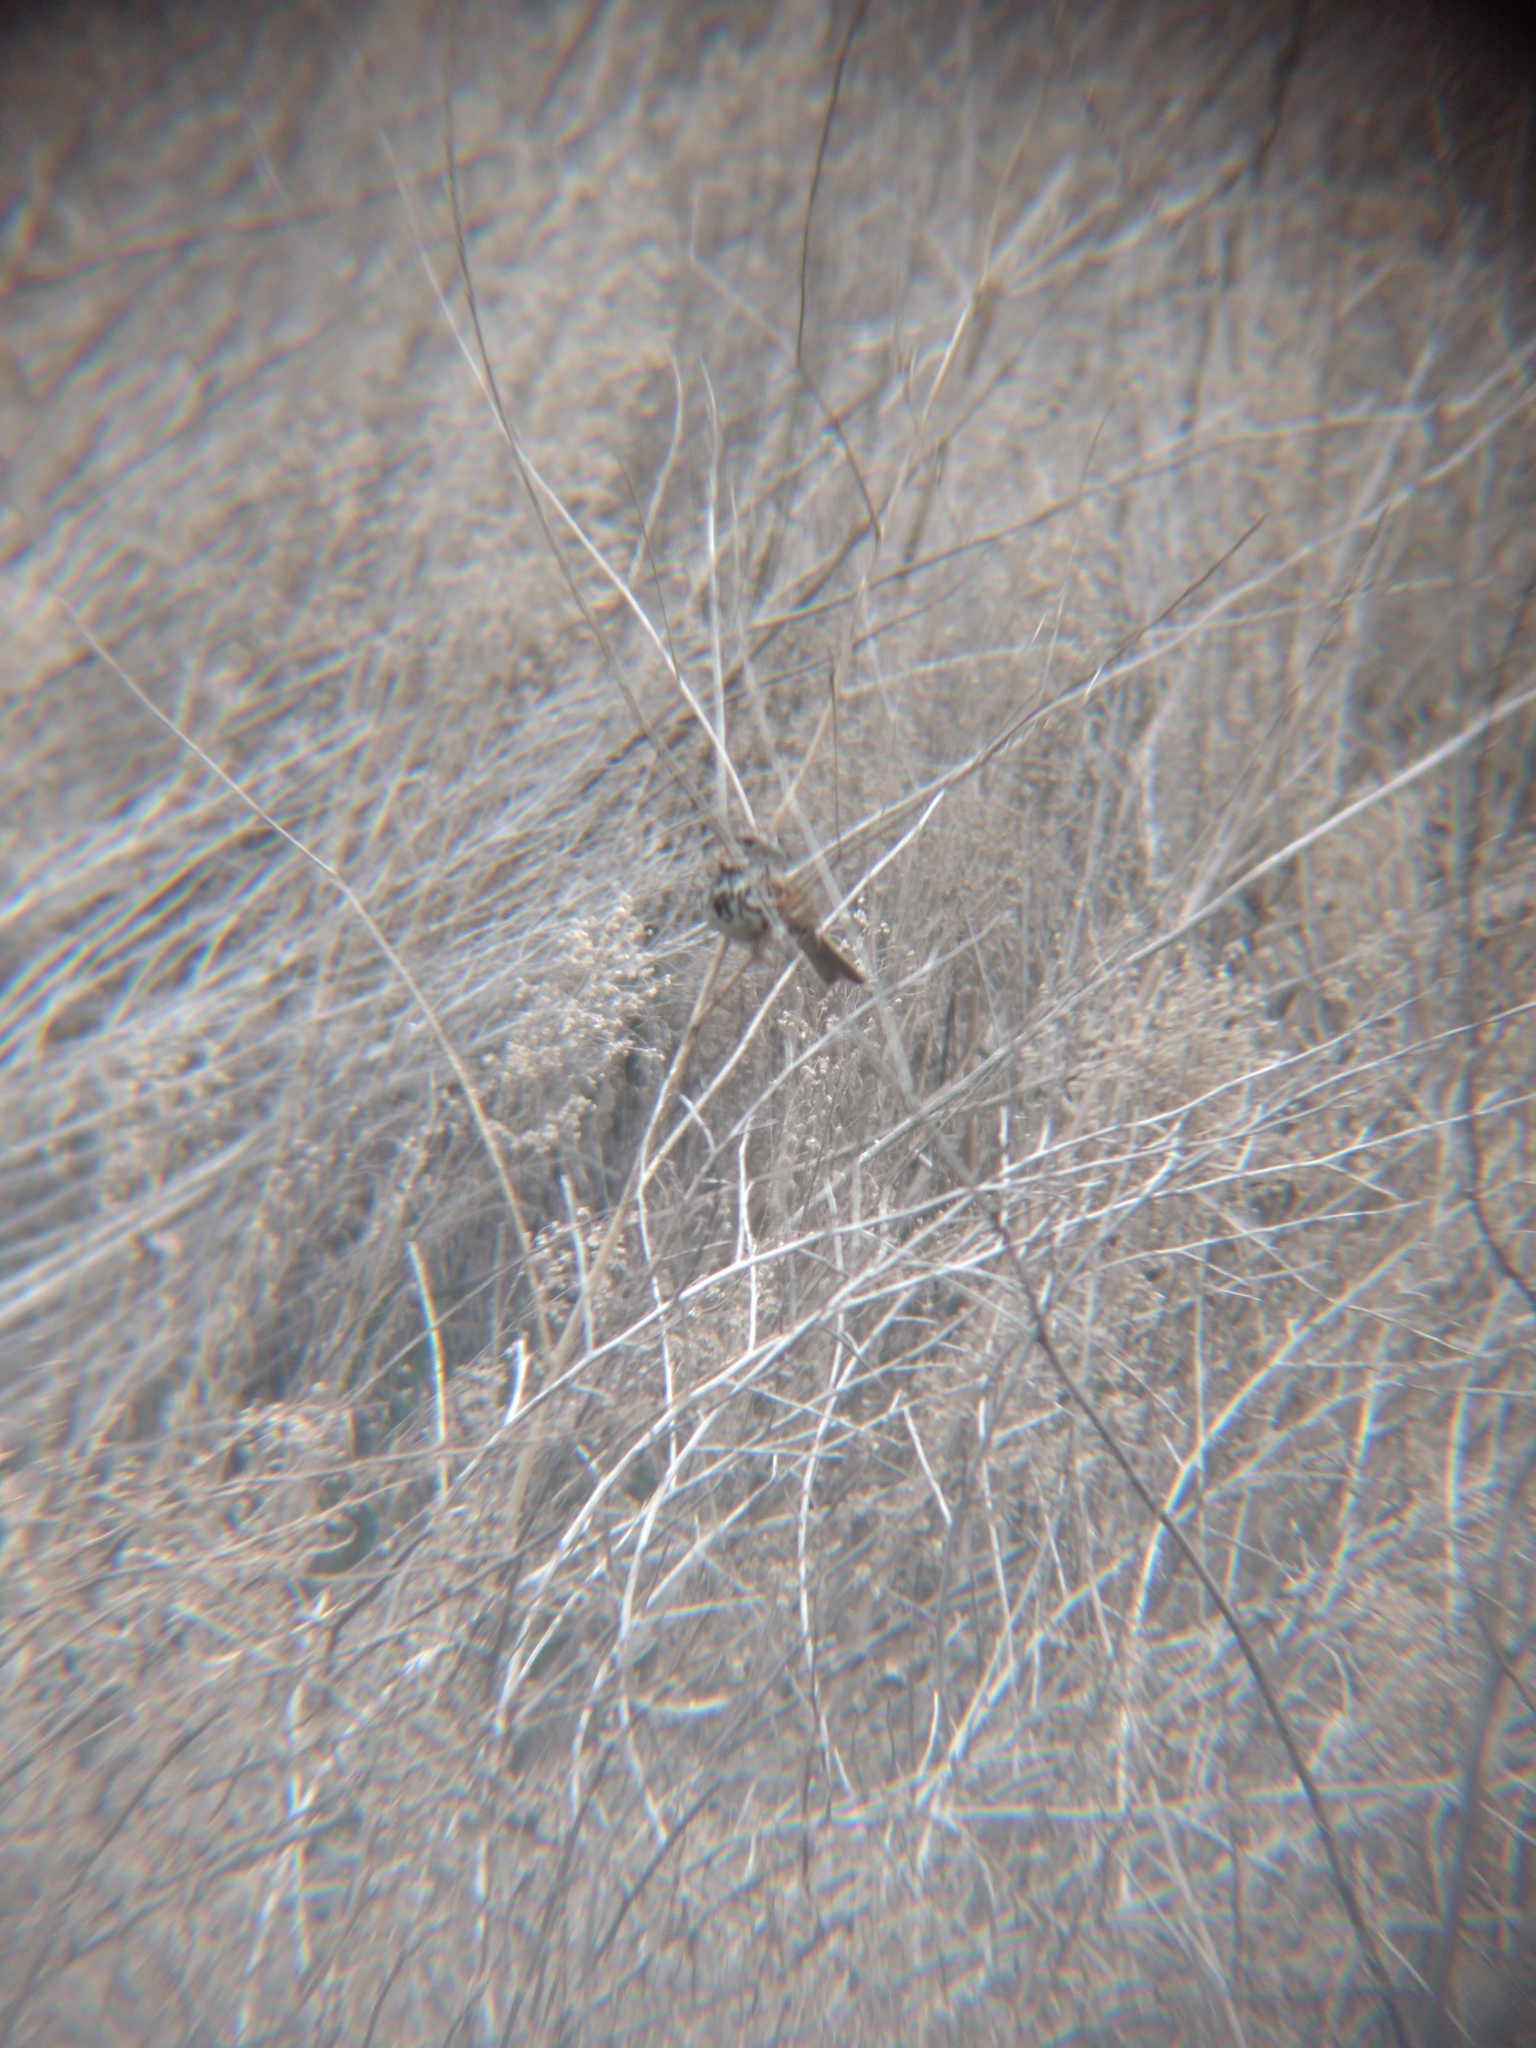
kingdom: Animalia
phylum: Chordata
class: Aves
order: Passeriformes
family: Passerellidae
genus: Melospiza
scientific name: Melospiza melodia
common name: Song sparrow
